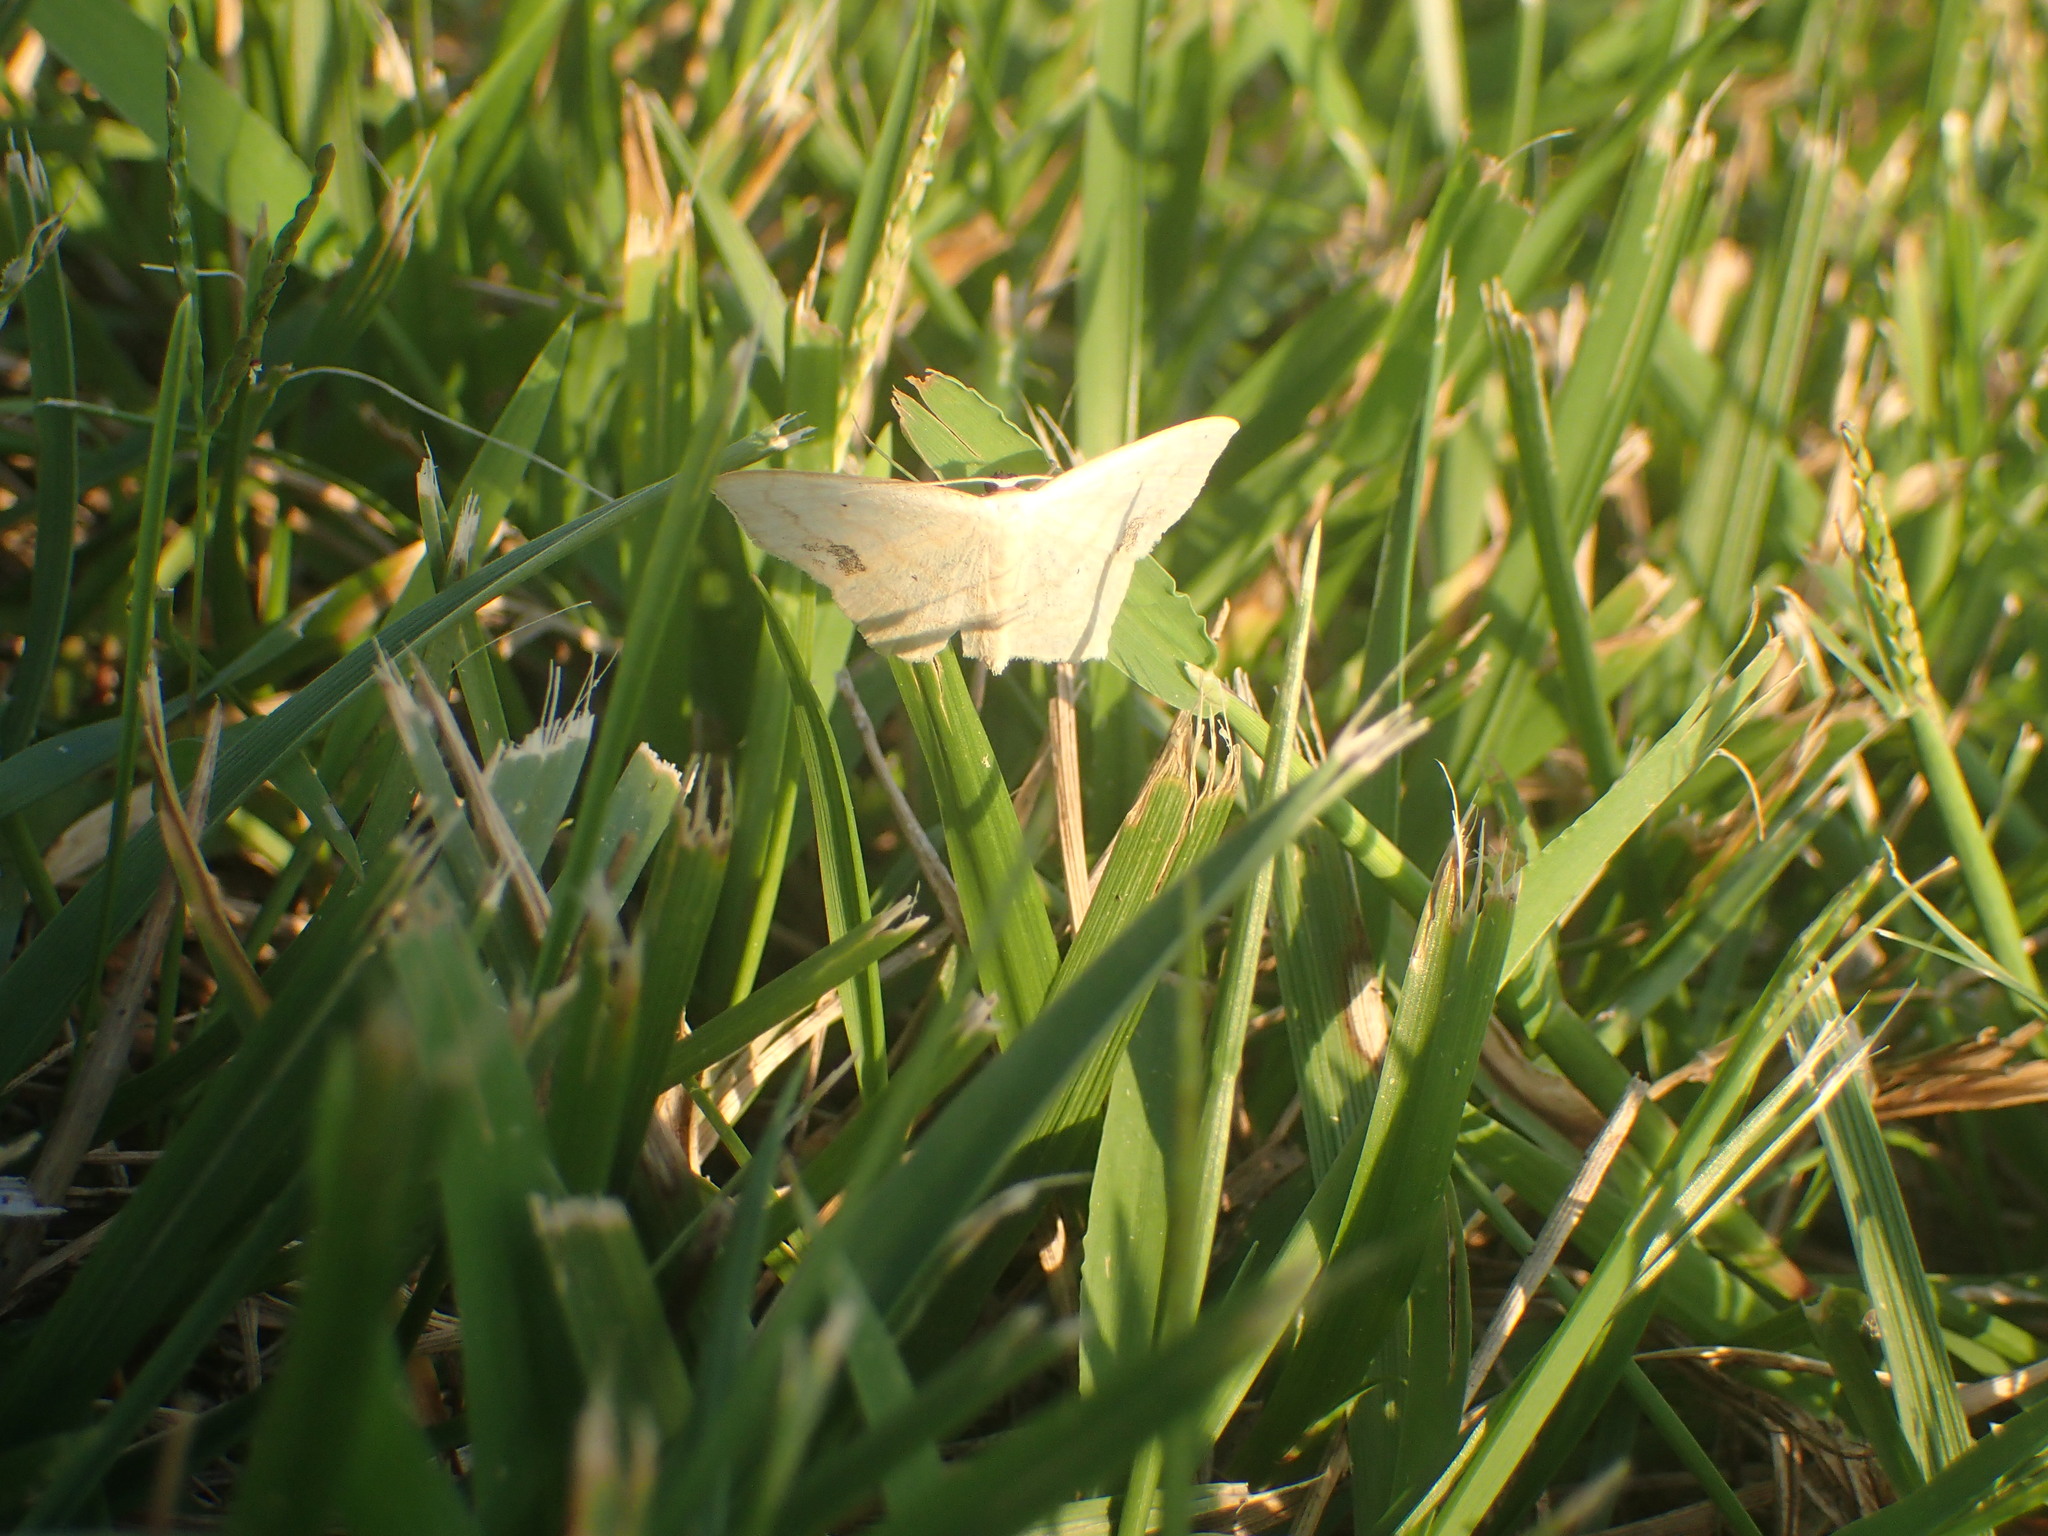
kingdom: Animalia
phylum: Arthropoda
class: Insecta
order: Lepidoptera
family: Geometridae
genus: Scopula
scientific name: Scopula limboundata
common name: Large lace border
